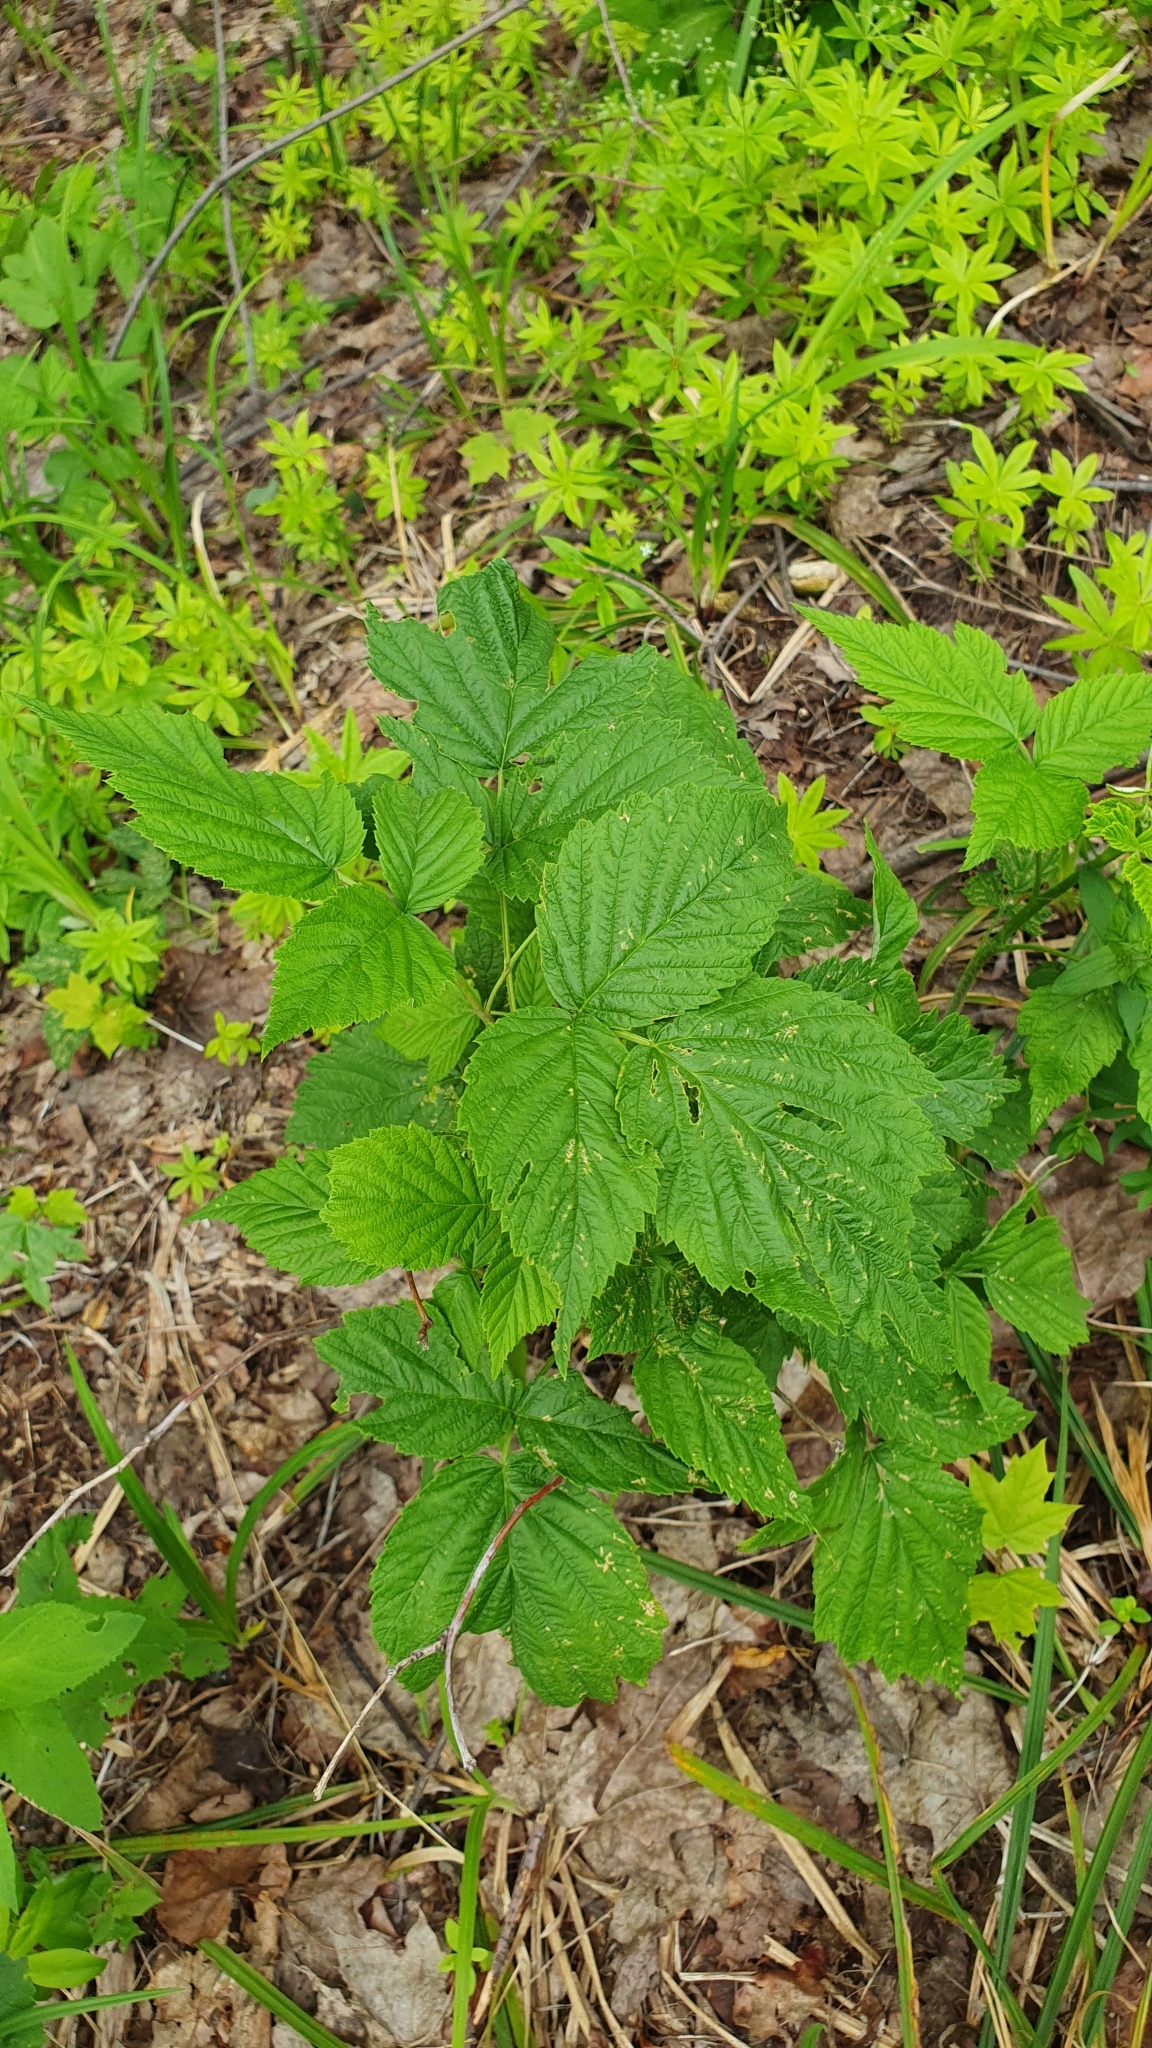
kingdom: Plantae
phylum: Tracheophyta
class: Magnoliopsida
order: Rosales
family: Rosaceae
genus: Rubus
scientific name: Rubus idaeus
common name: Raspberry
